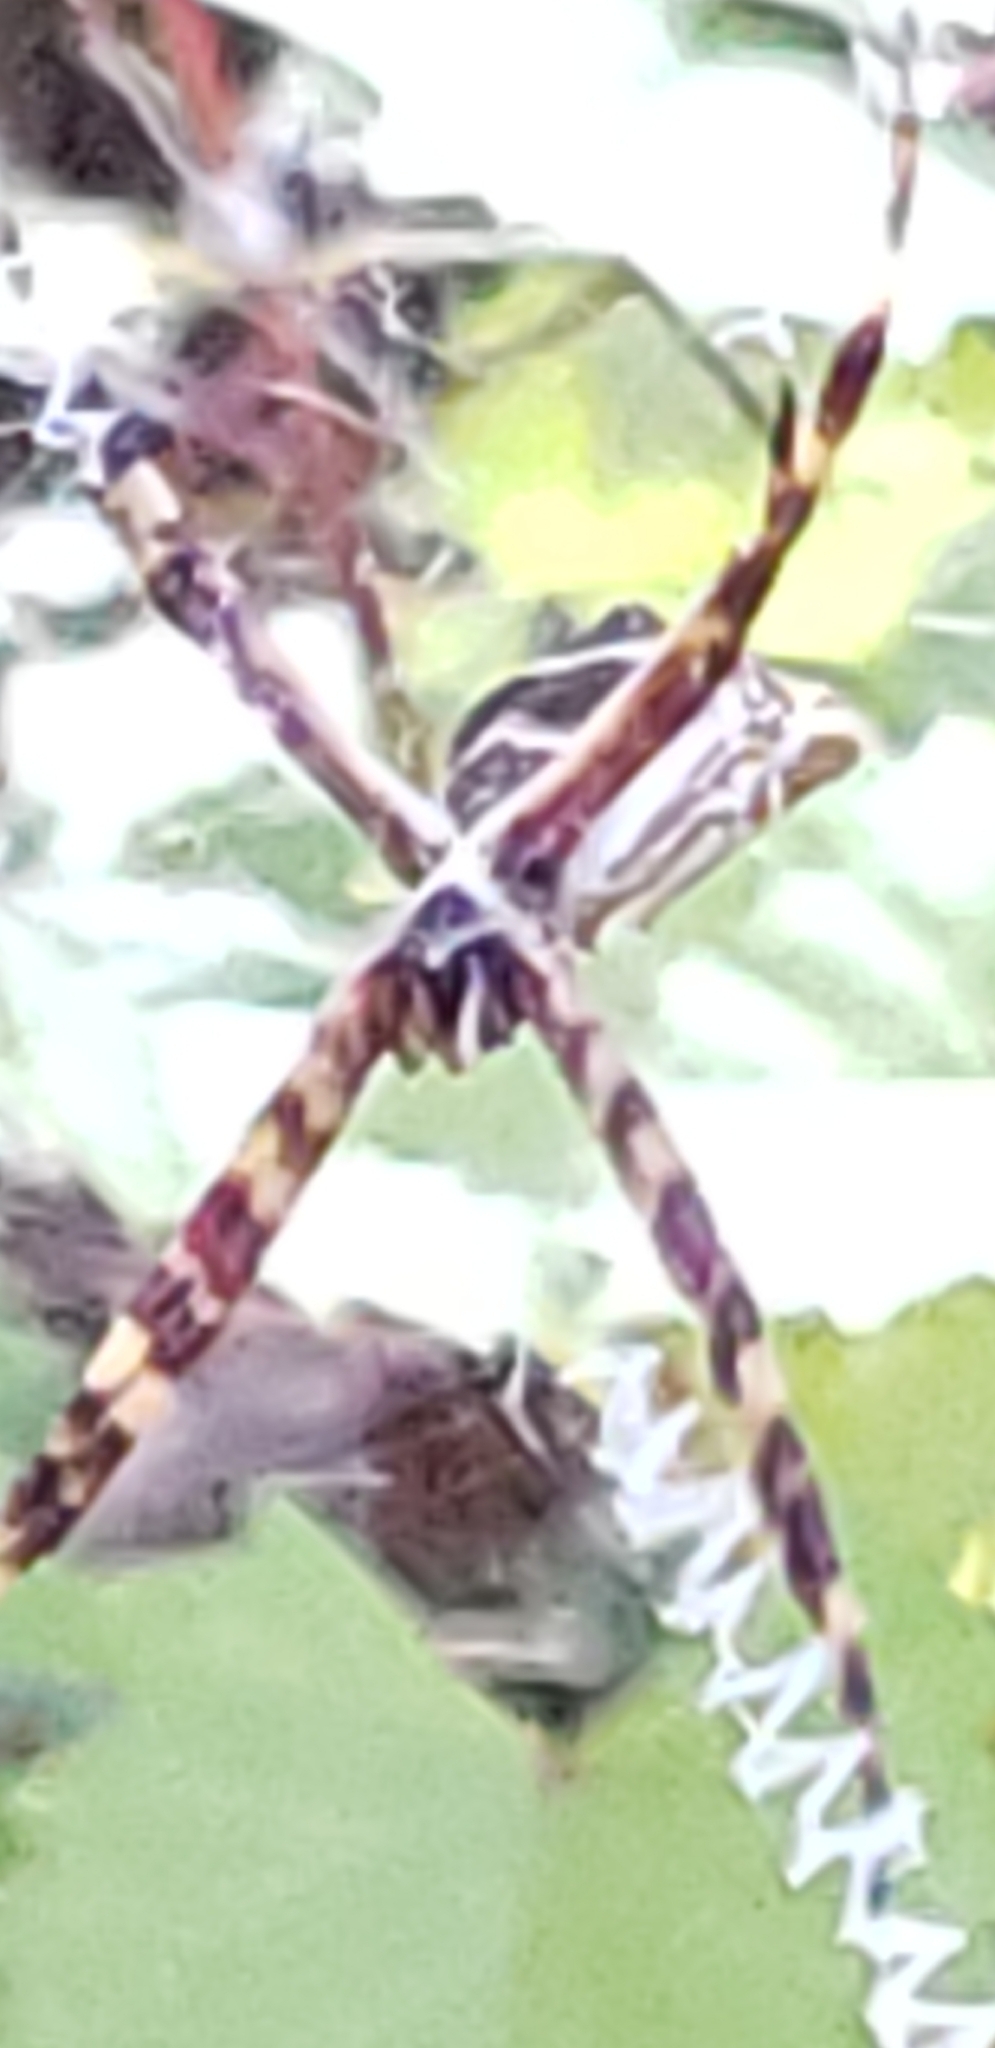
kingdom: Animalia
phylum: Arthropoda
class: Arachnida
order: Araneae
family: Araneidae
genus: Argiope
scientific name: Argiope argentata
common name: Orb weavers
